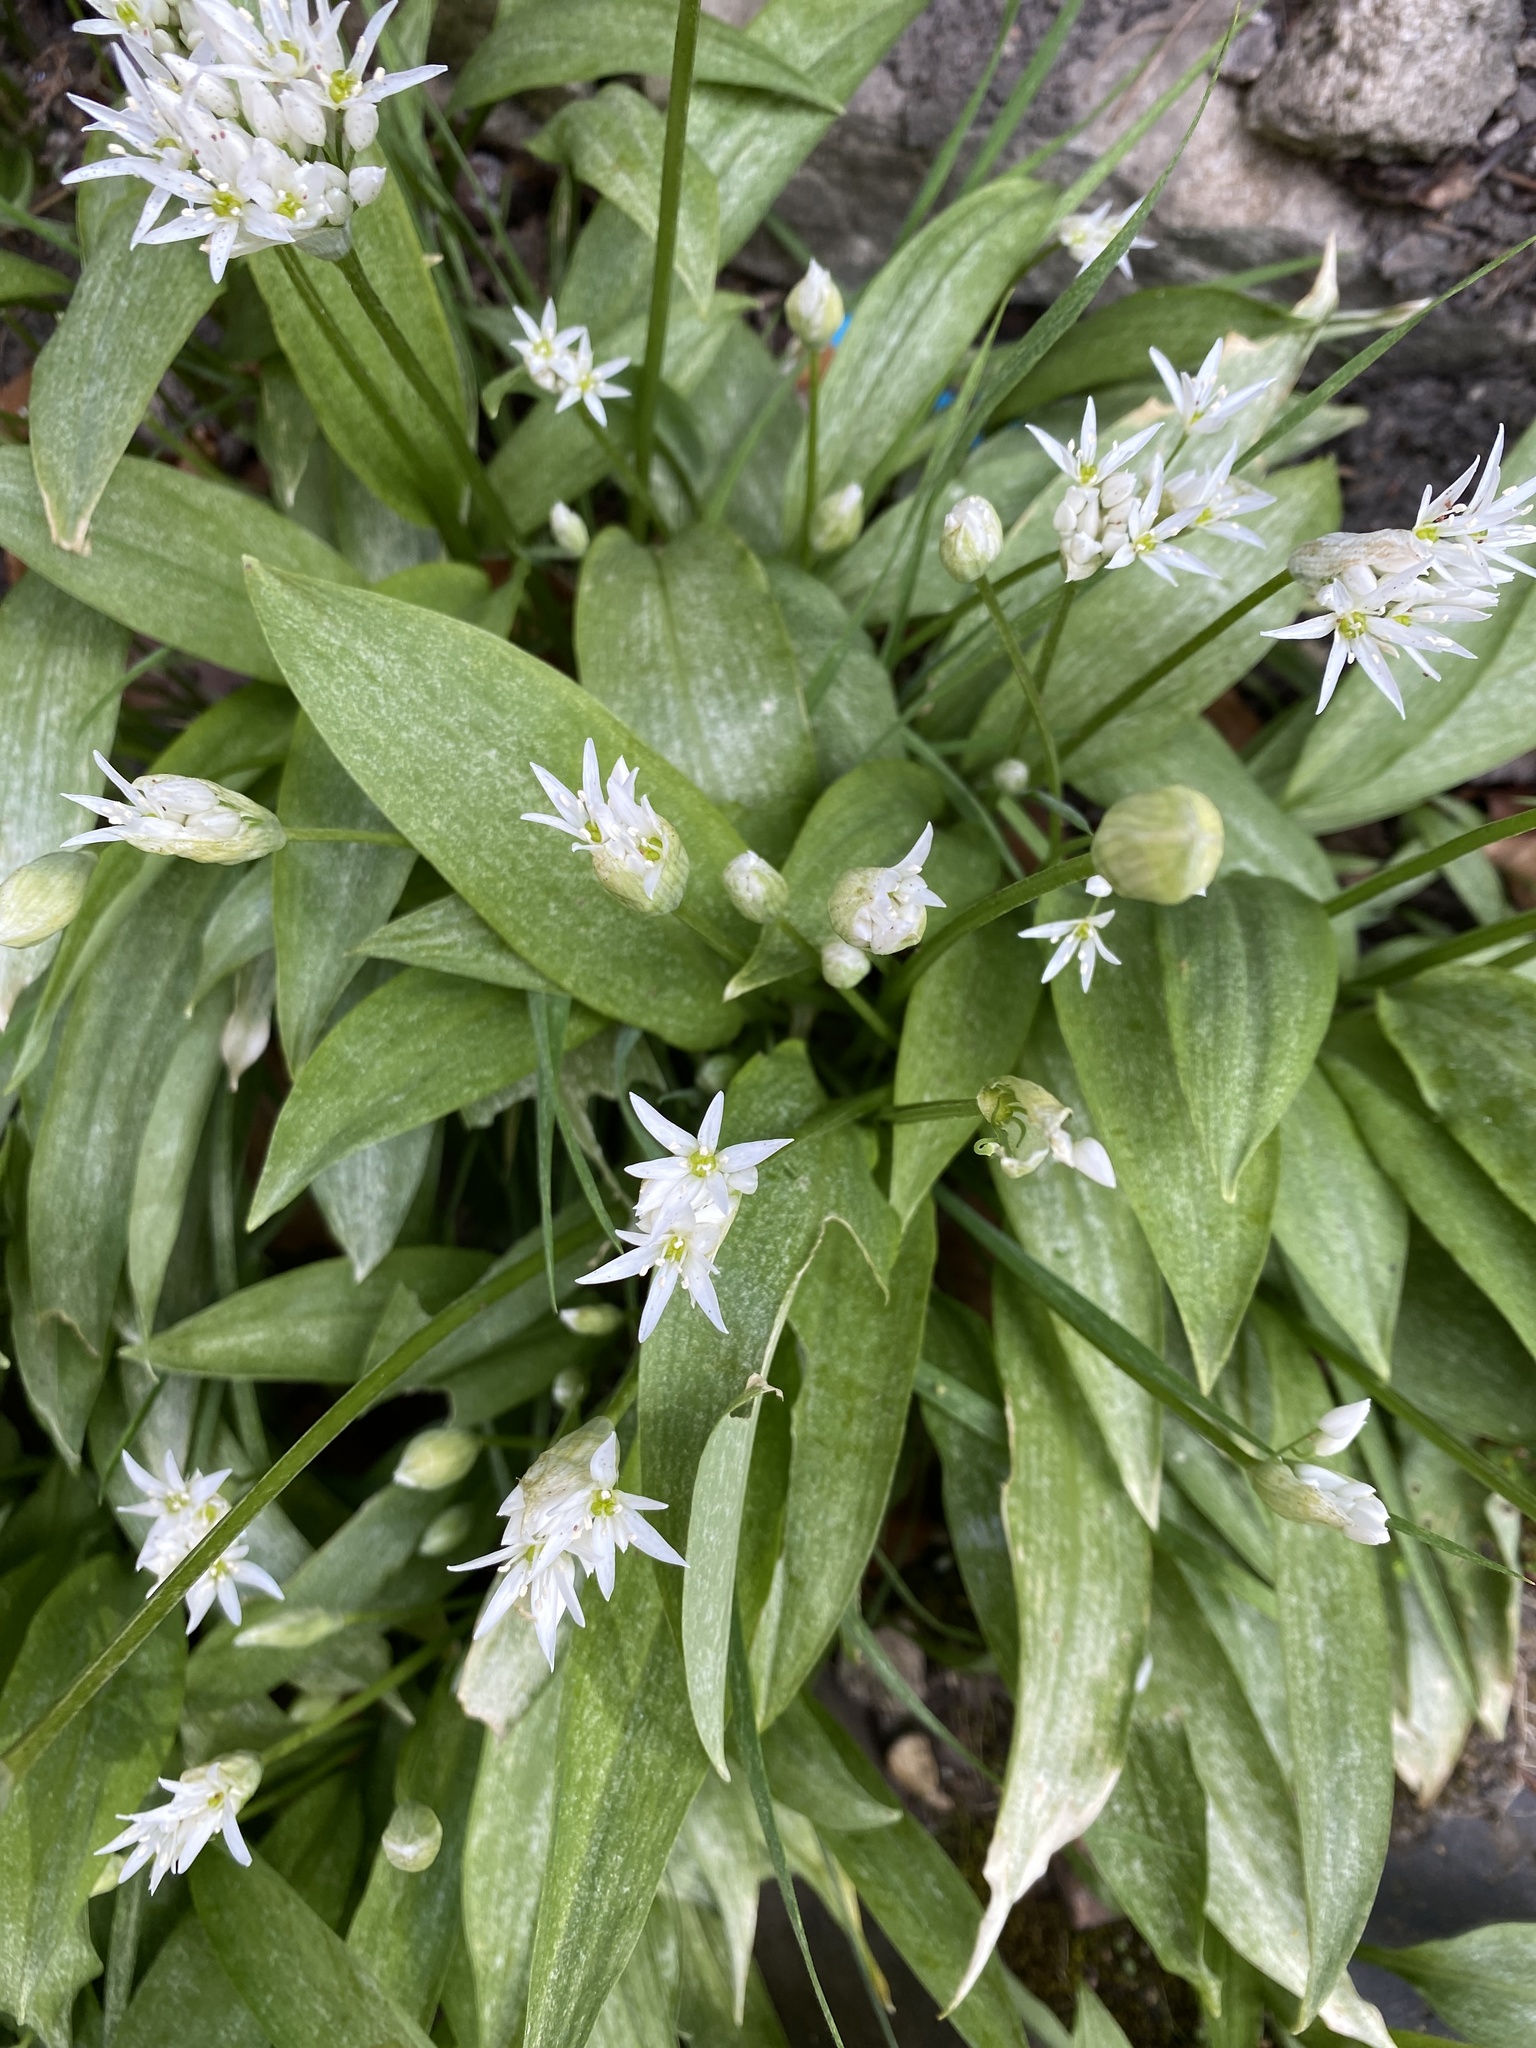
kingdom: Plantae
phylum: Tracheophyta
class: Liliopsida
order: Asparagales
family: Amaryllidaceae
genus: Allium
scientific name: Allium ursinum
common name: Ramsons
